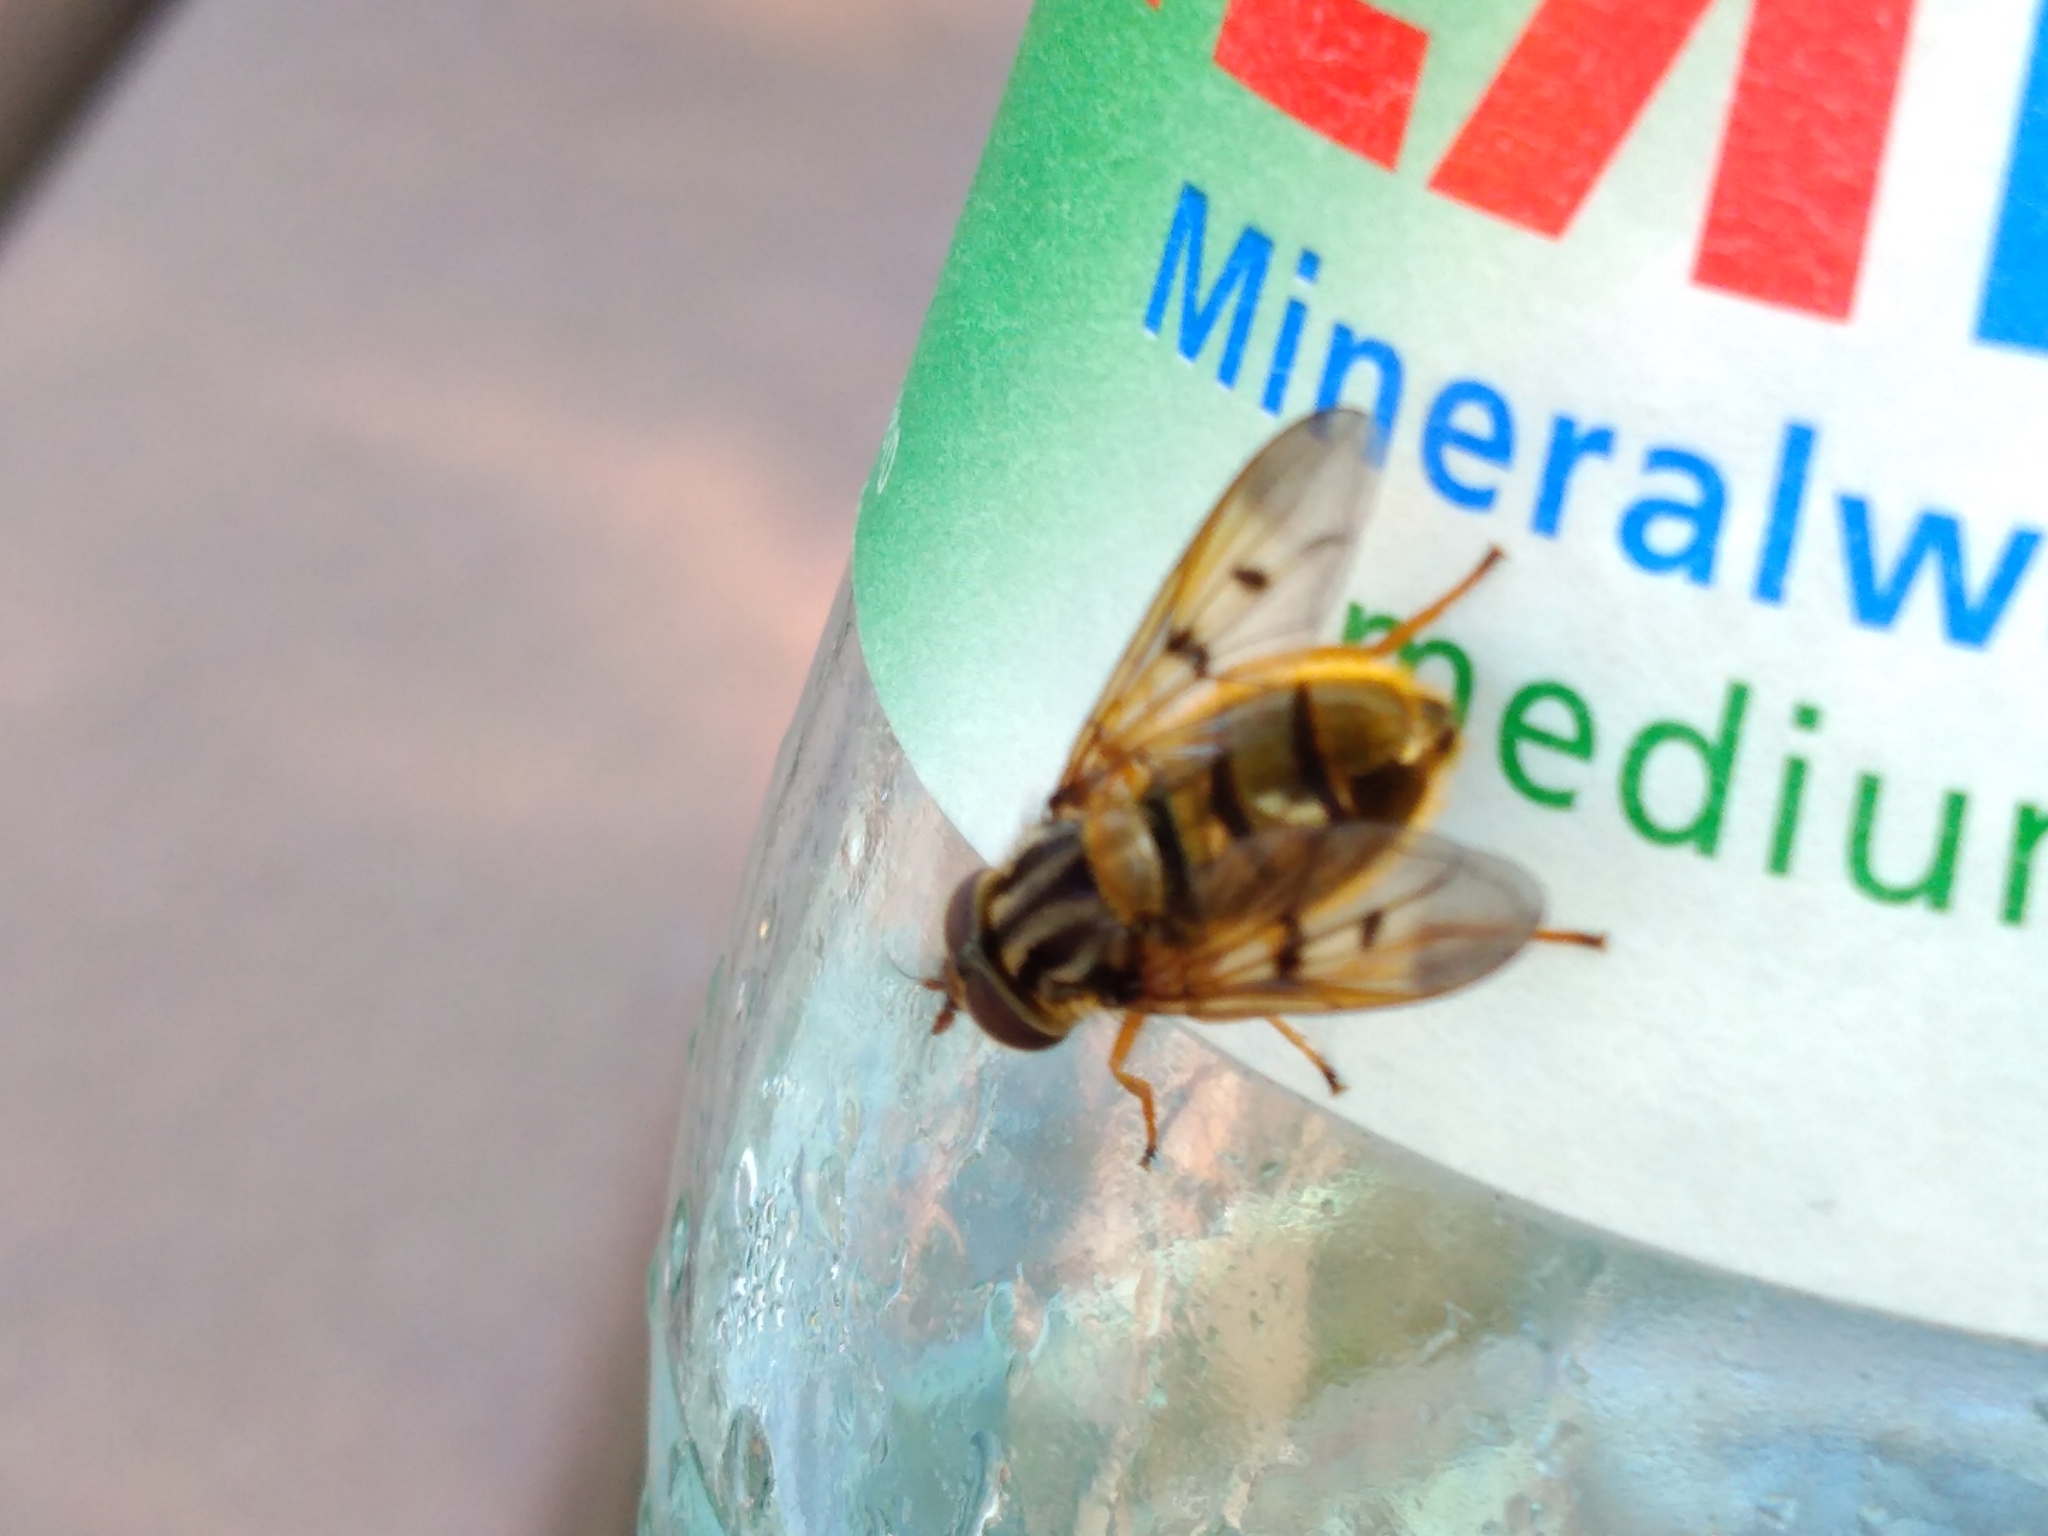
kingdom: Animalia
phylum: Arthropoda
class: Insecta
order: Diptera
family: Syrphidae
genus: Ferdinandea
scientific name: Ferdinandea cuprea
